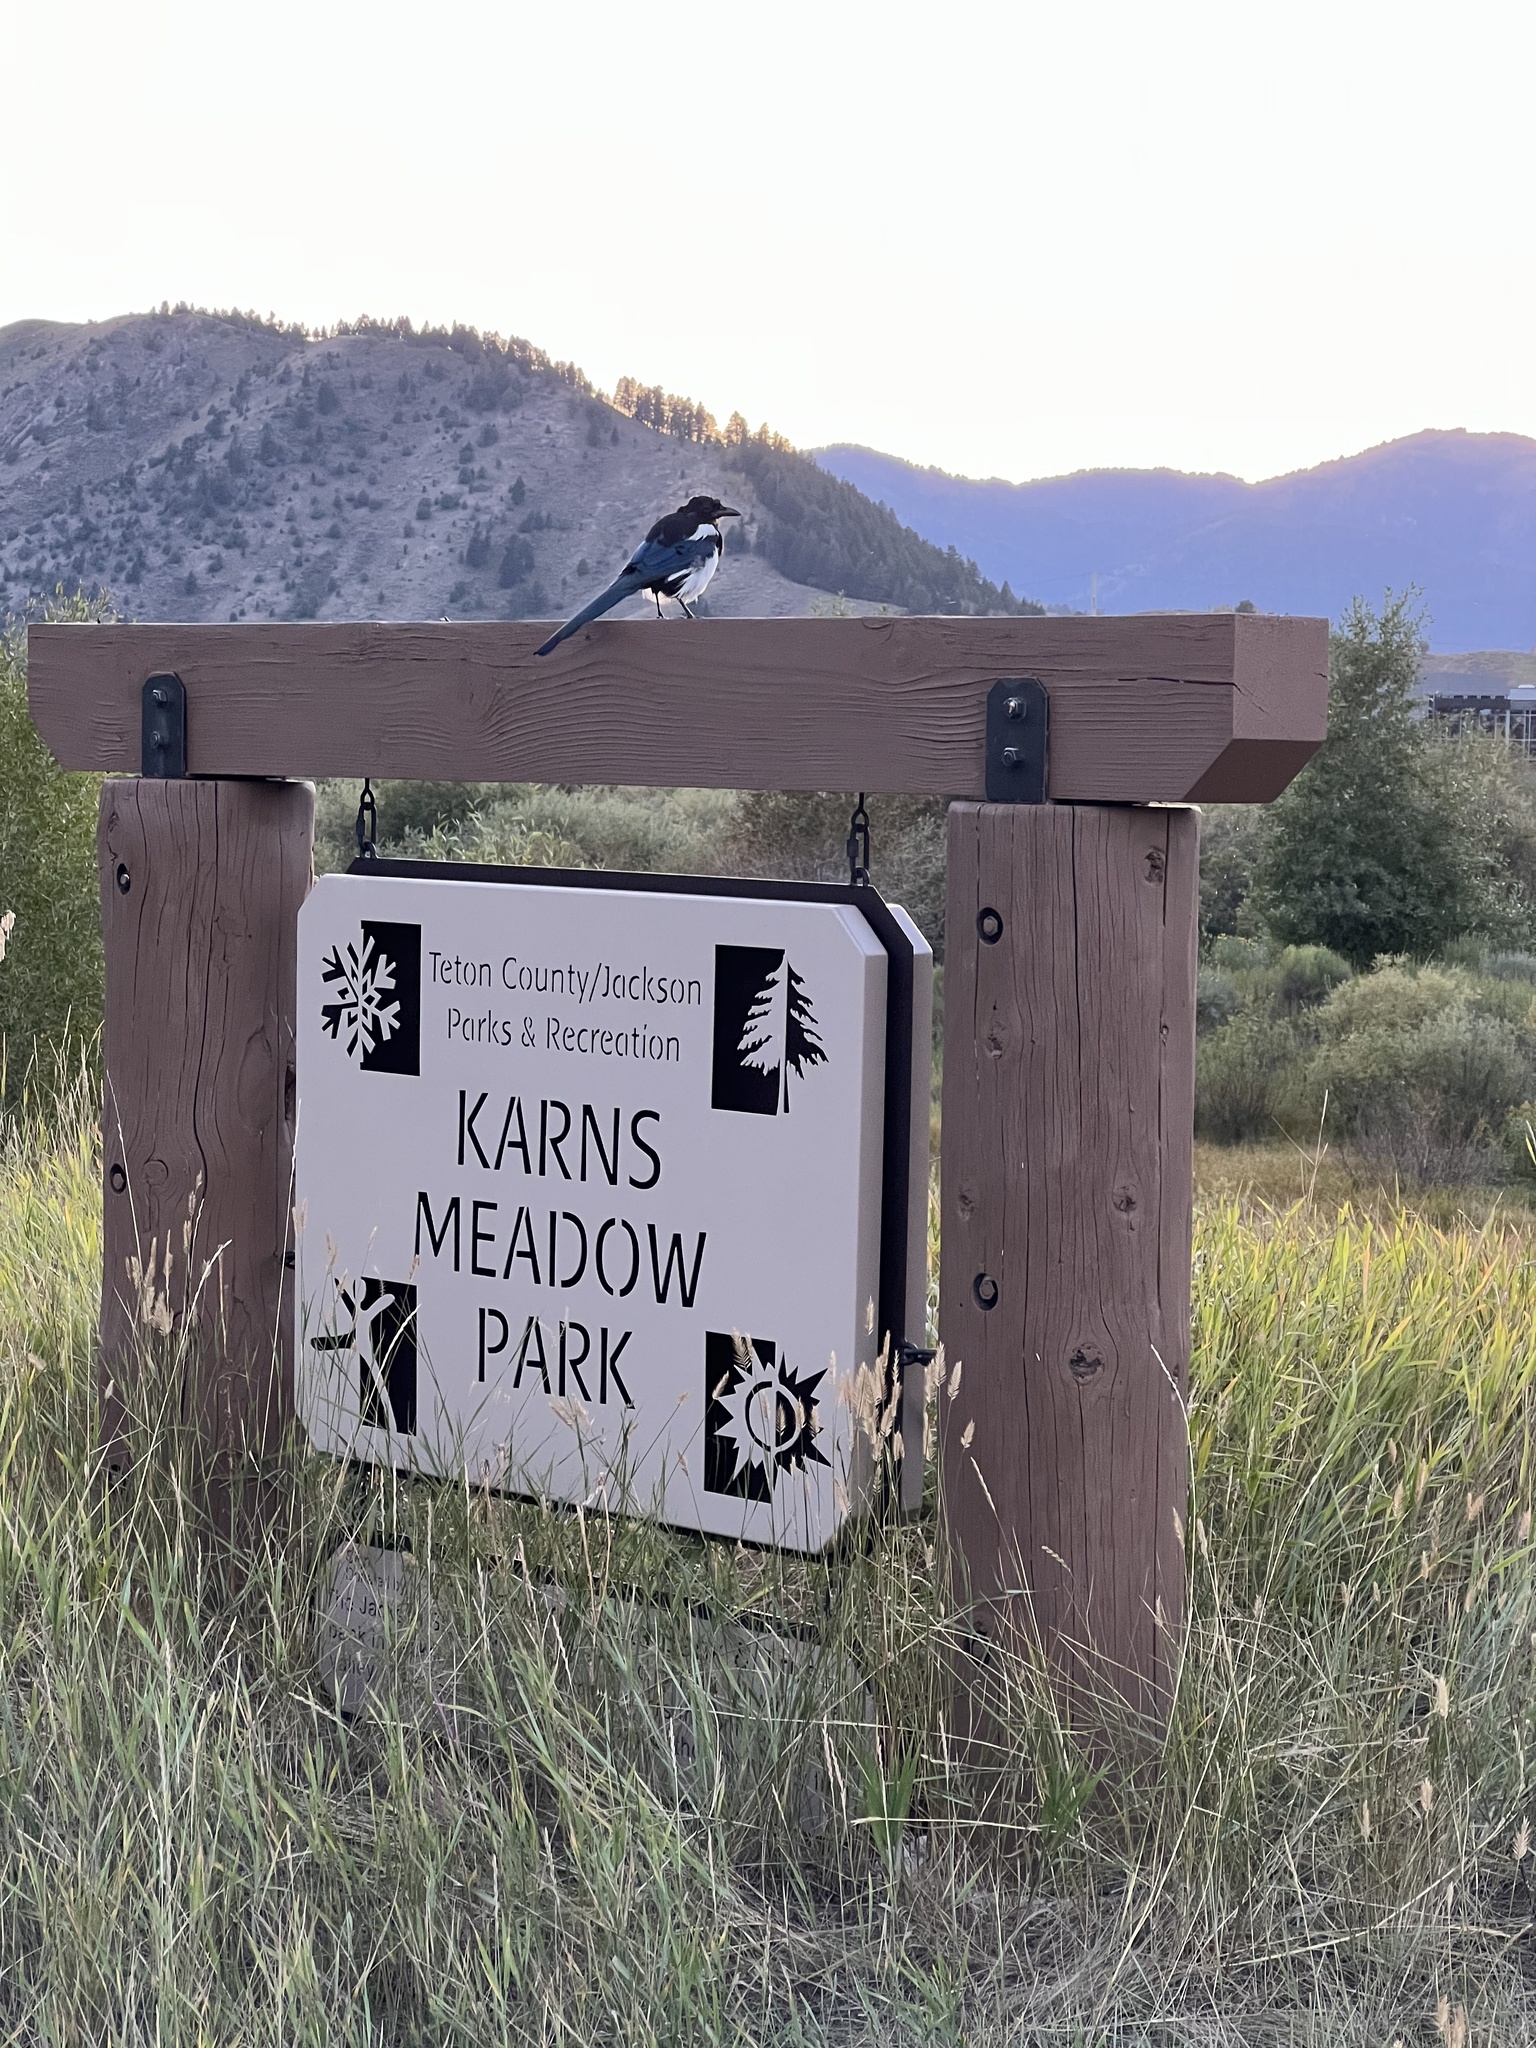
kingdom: Animalia
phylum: Chordata
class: Aves
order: Passeriformes
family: Corvidae
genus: Pica
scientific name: Pica hudsonia
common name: Black-billed magpie
